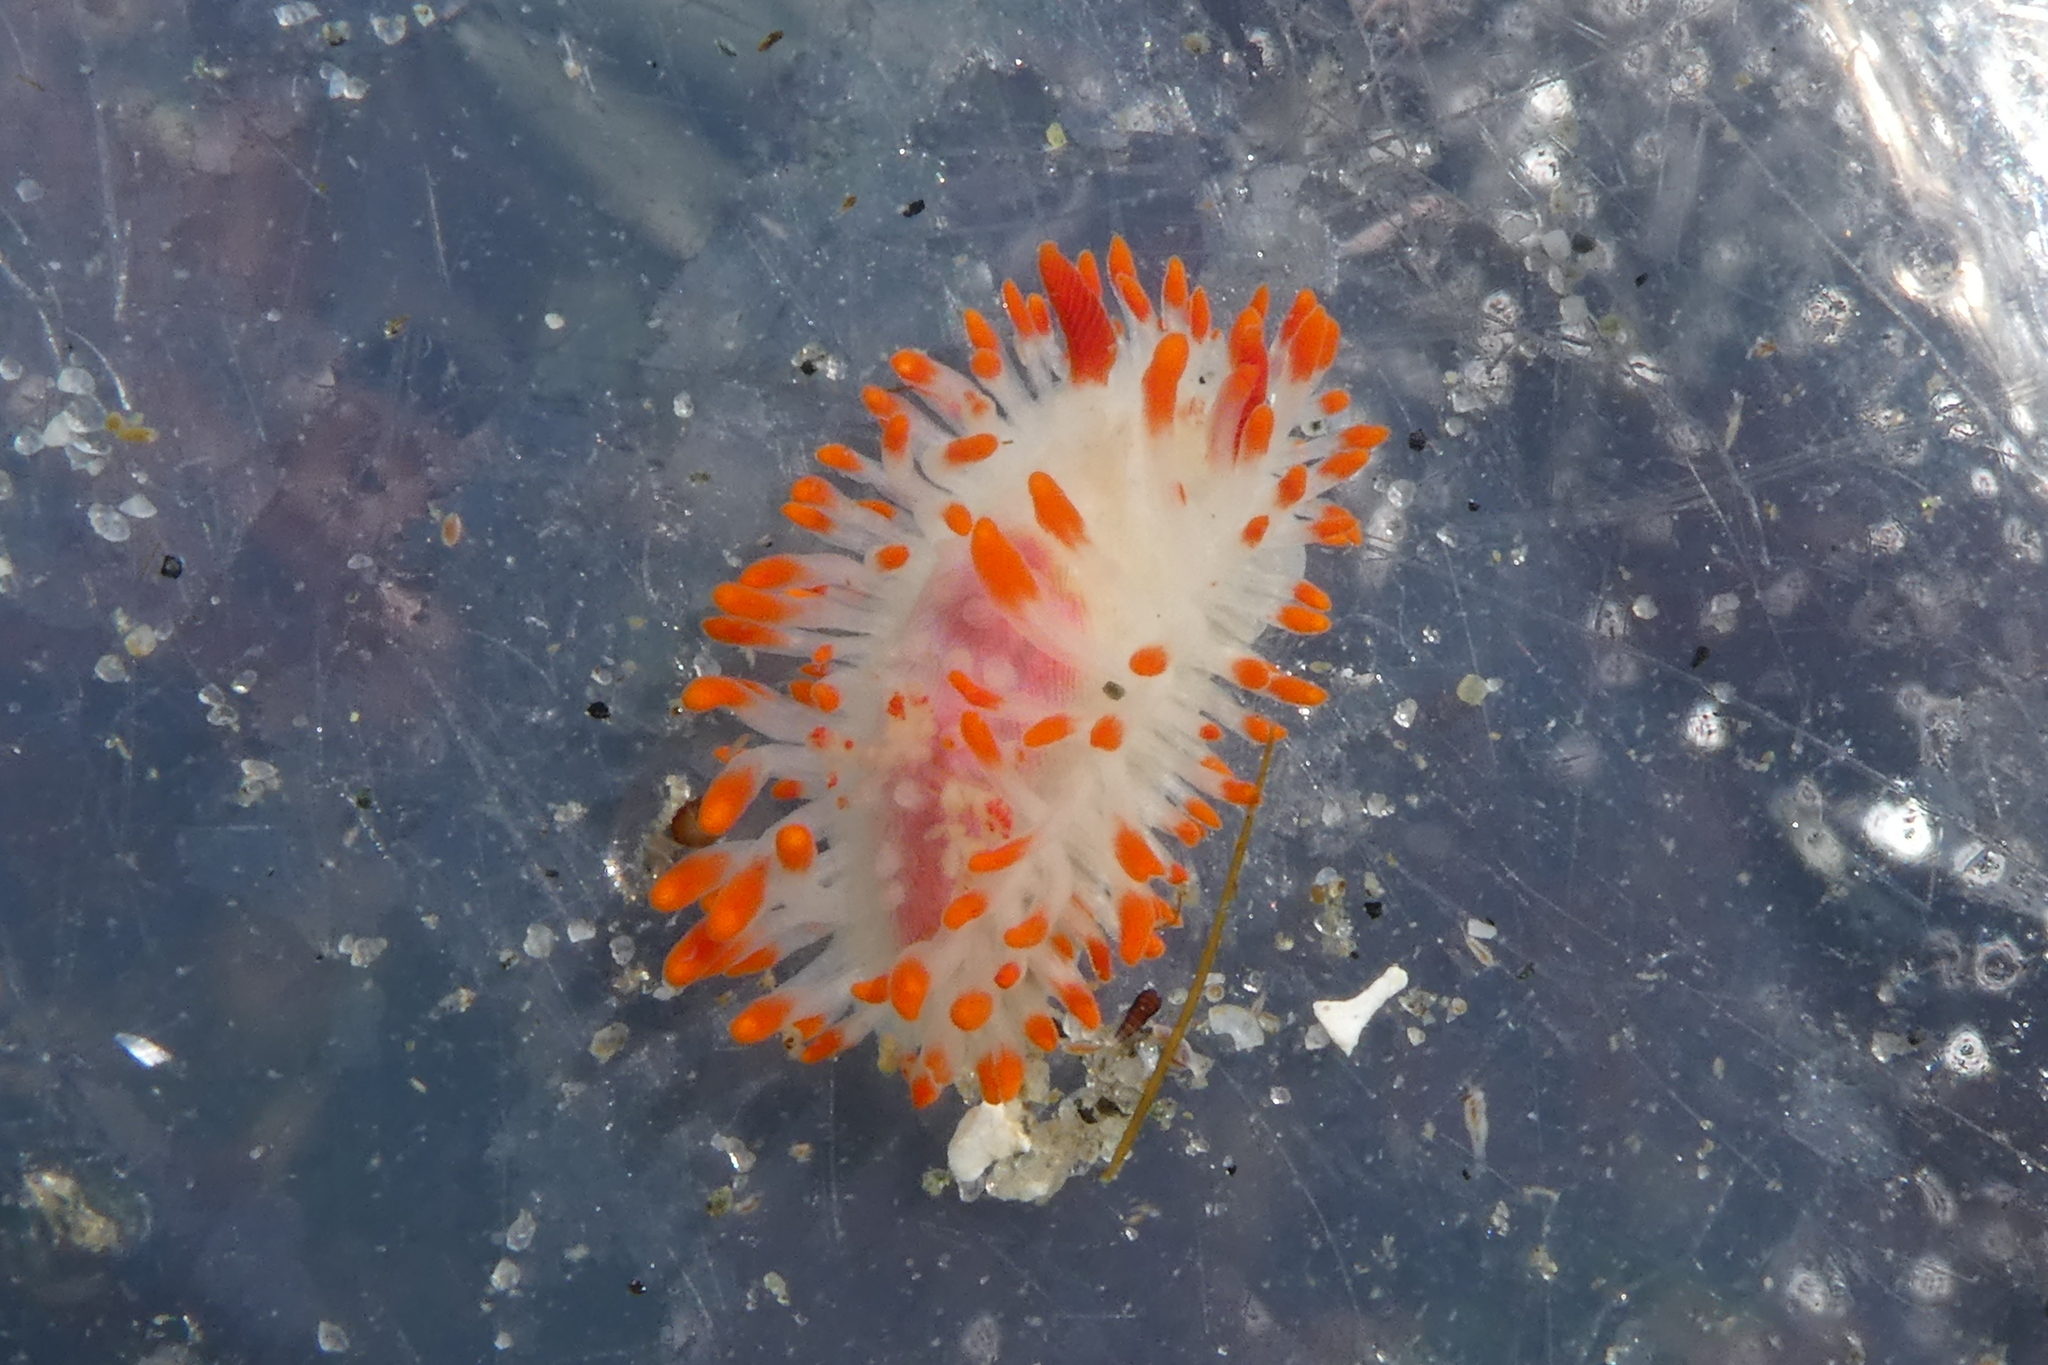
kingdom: Animalia
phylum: Mollusca
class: Gastropoda
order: Nudibranchia
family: Polyceridae
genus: Limacia
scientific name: Limacia cockerelli
